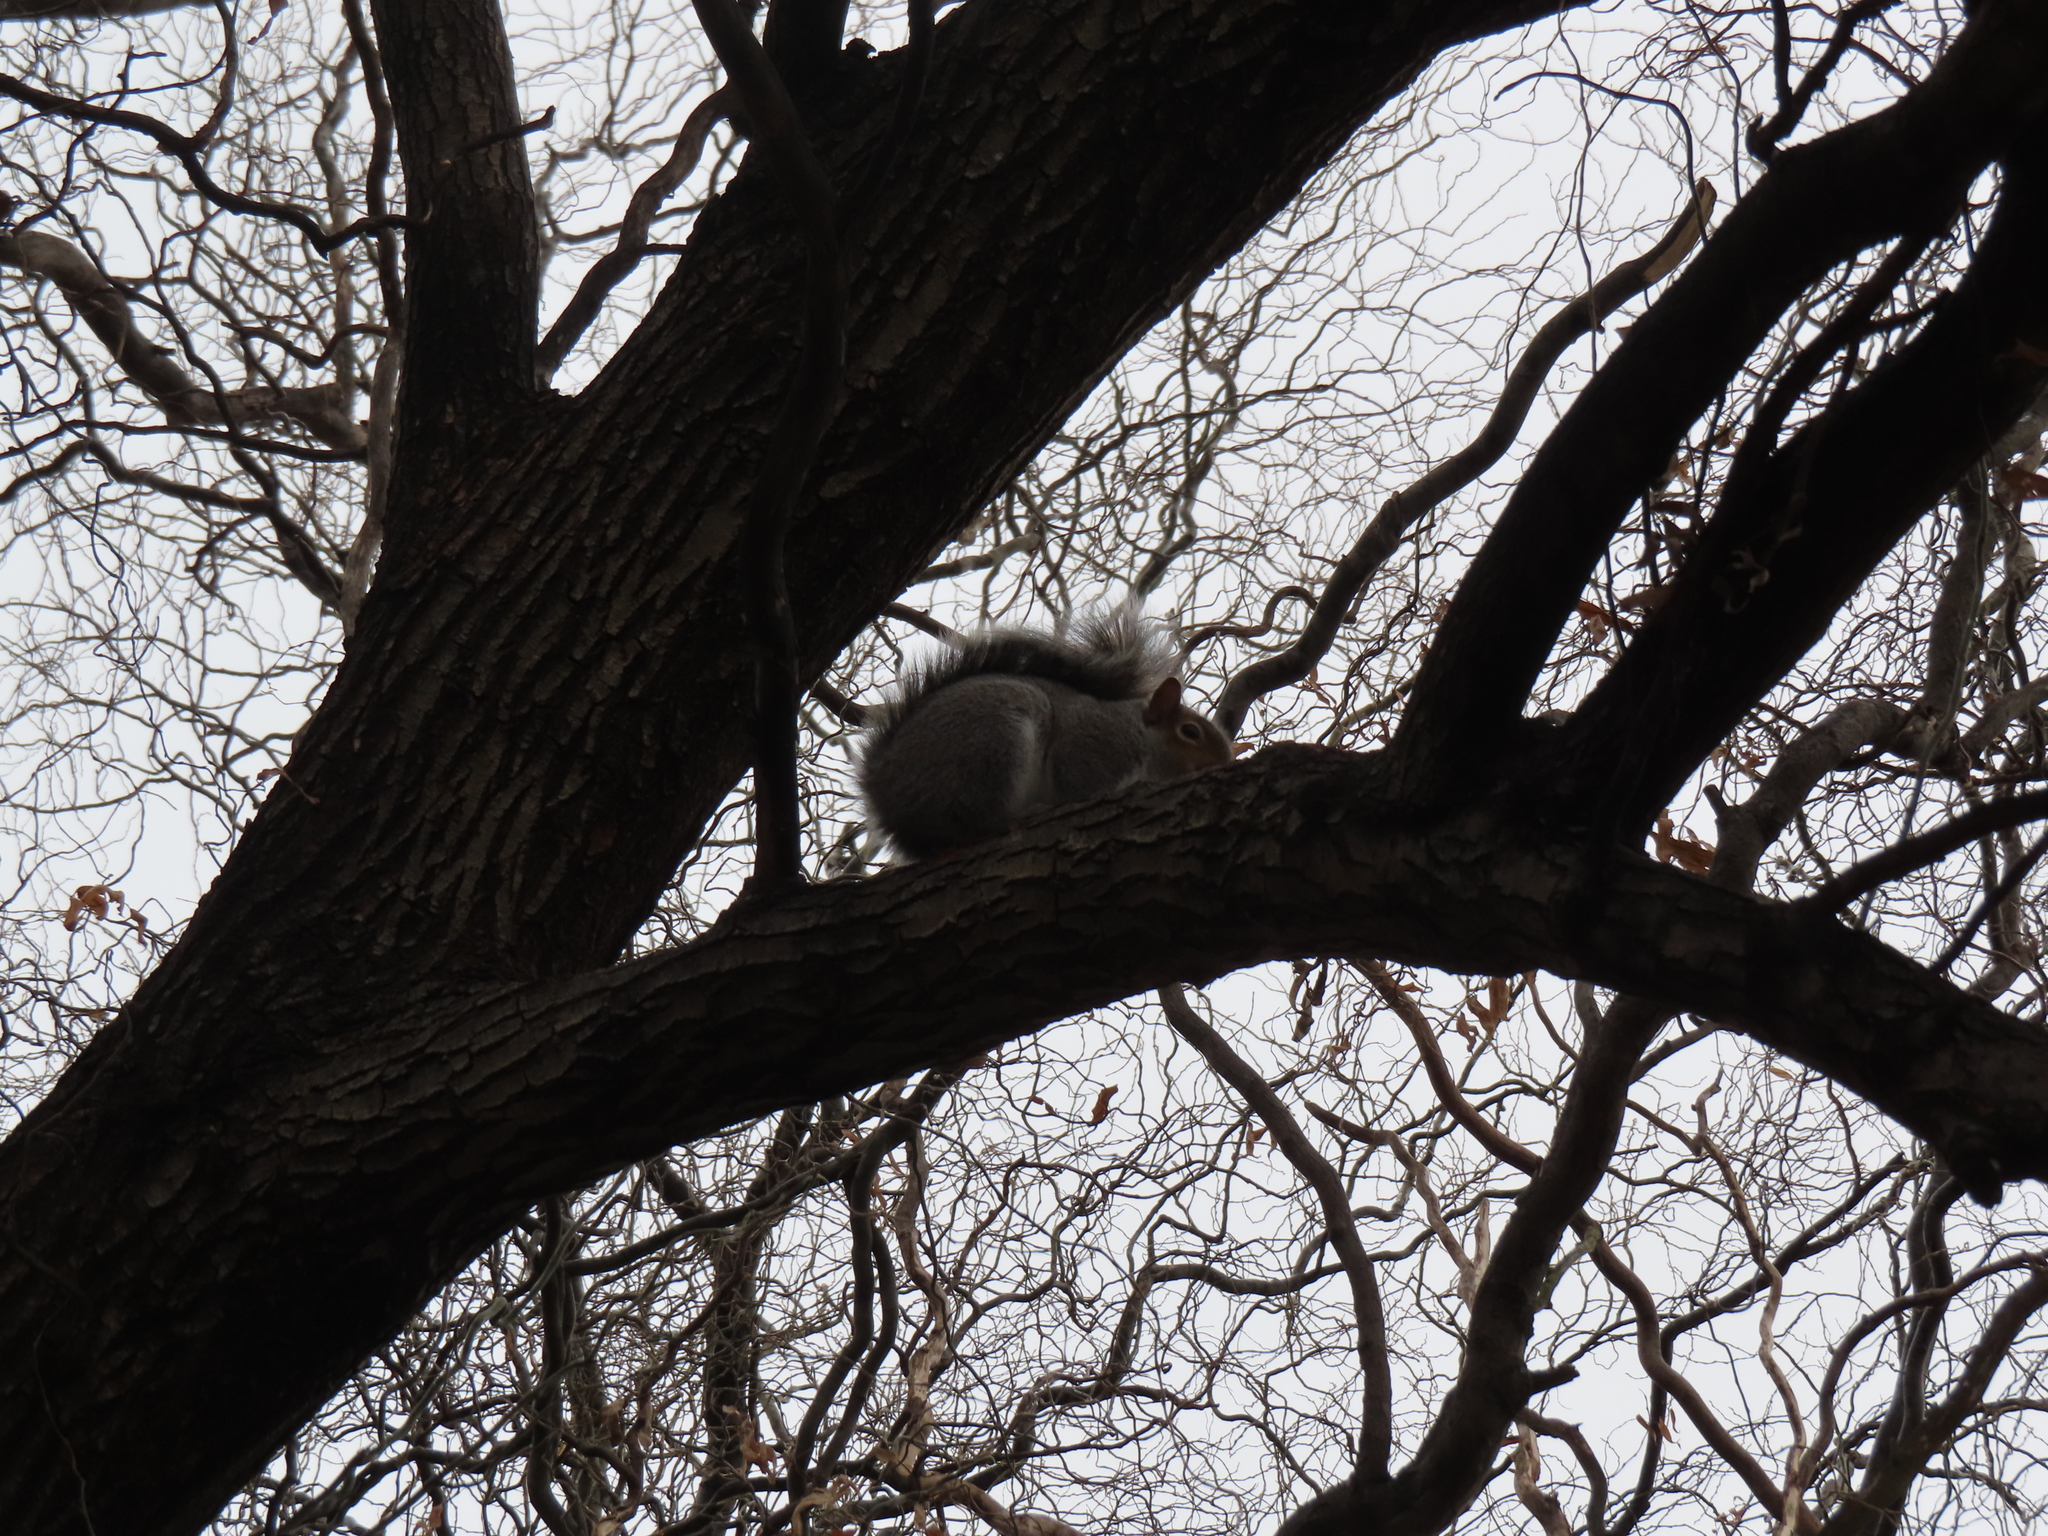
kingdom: Animalia
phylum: Chordata
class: Mammalia
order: Rodentia
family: Sciuridae
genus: Sciurus
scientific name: Sciurus carolinensis
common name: Eastern gray squirrel
